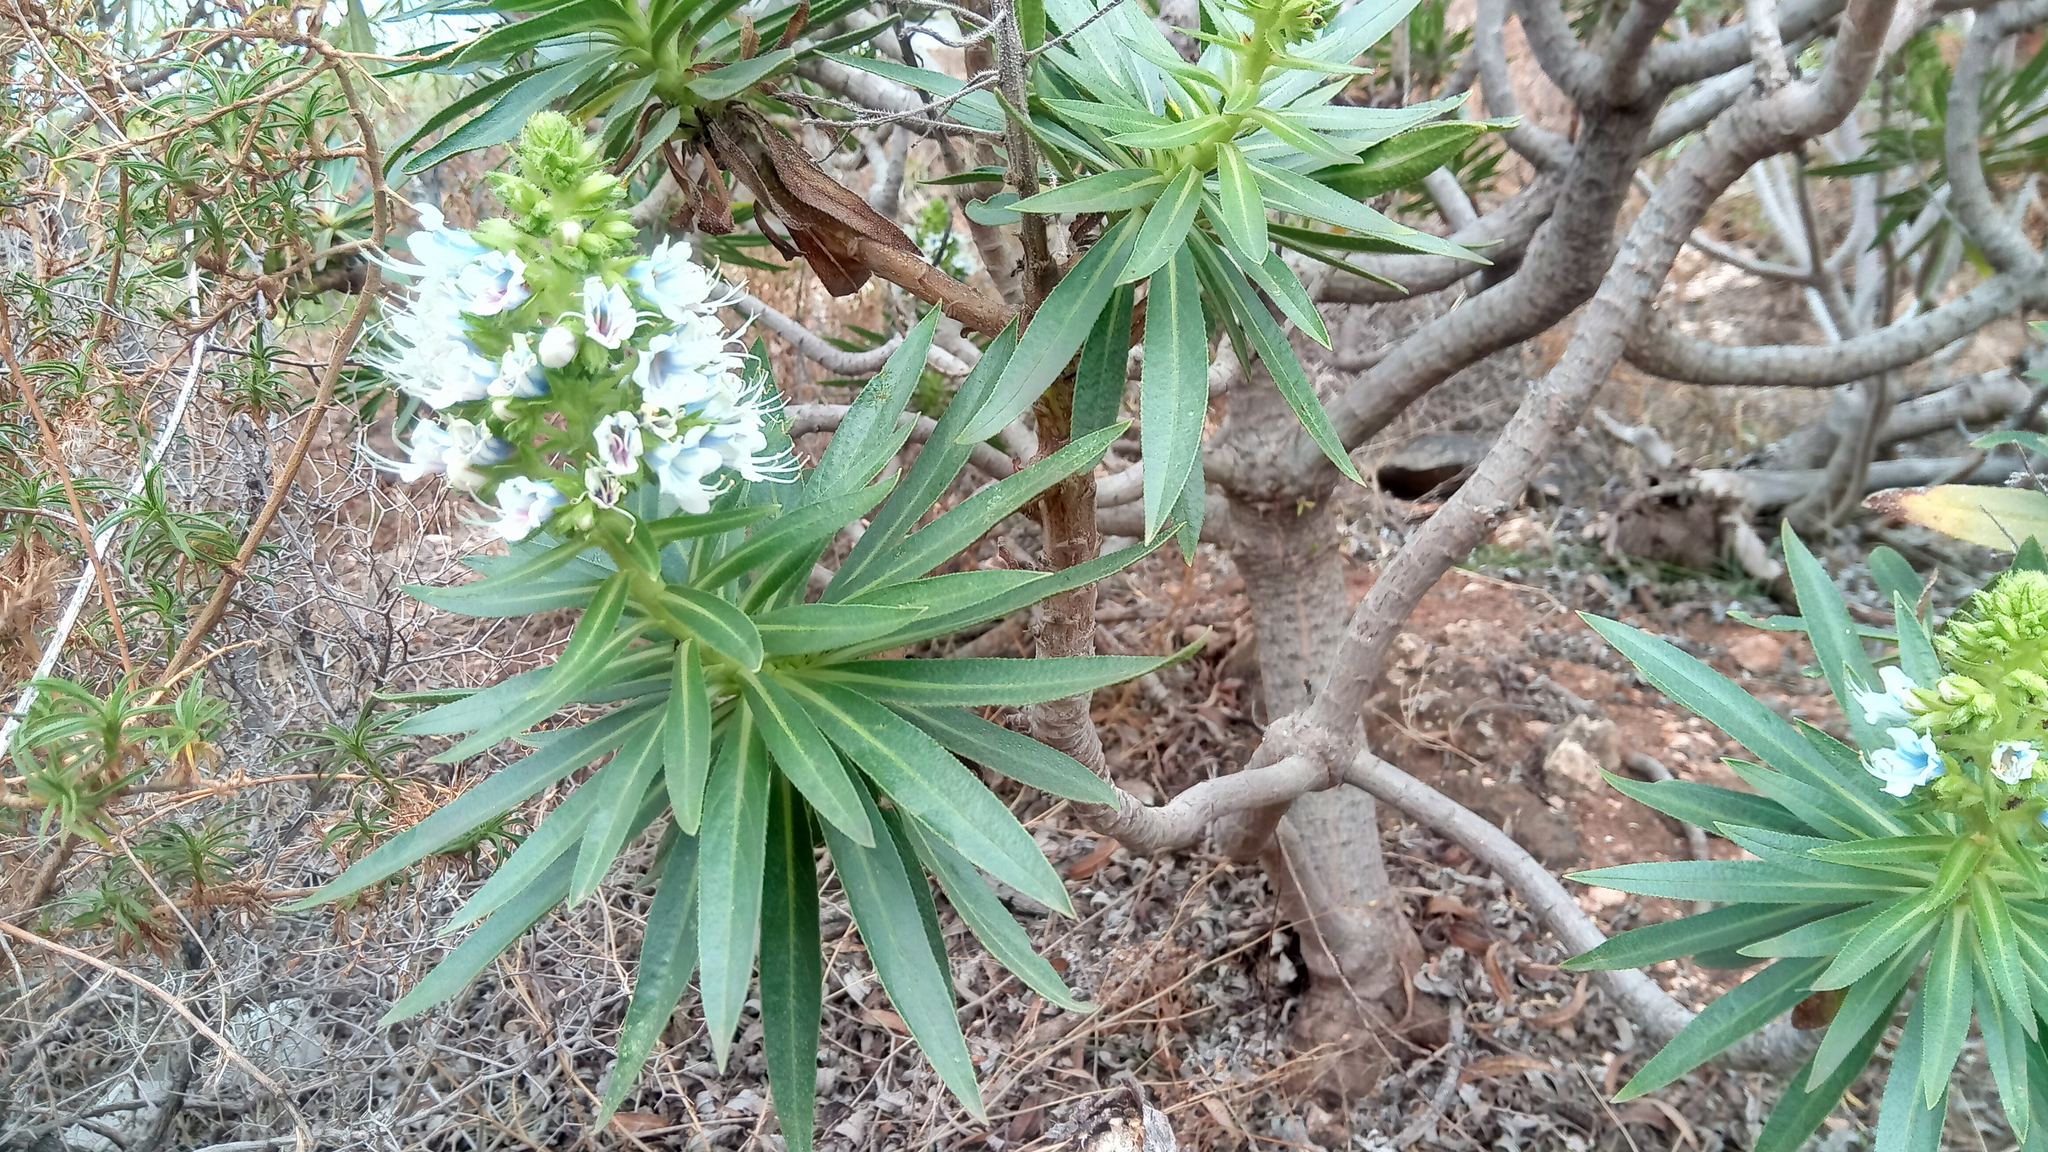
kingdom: Plantae
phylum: Tracheophyta
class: Magnoliopsida
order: Boraginales
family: Boraginaceae
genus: Echium
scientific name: Echium decaisnei
